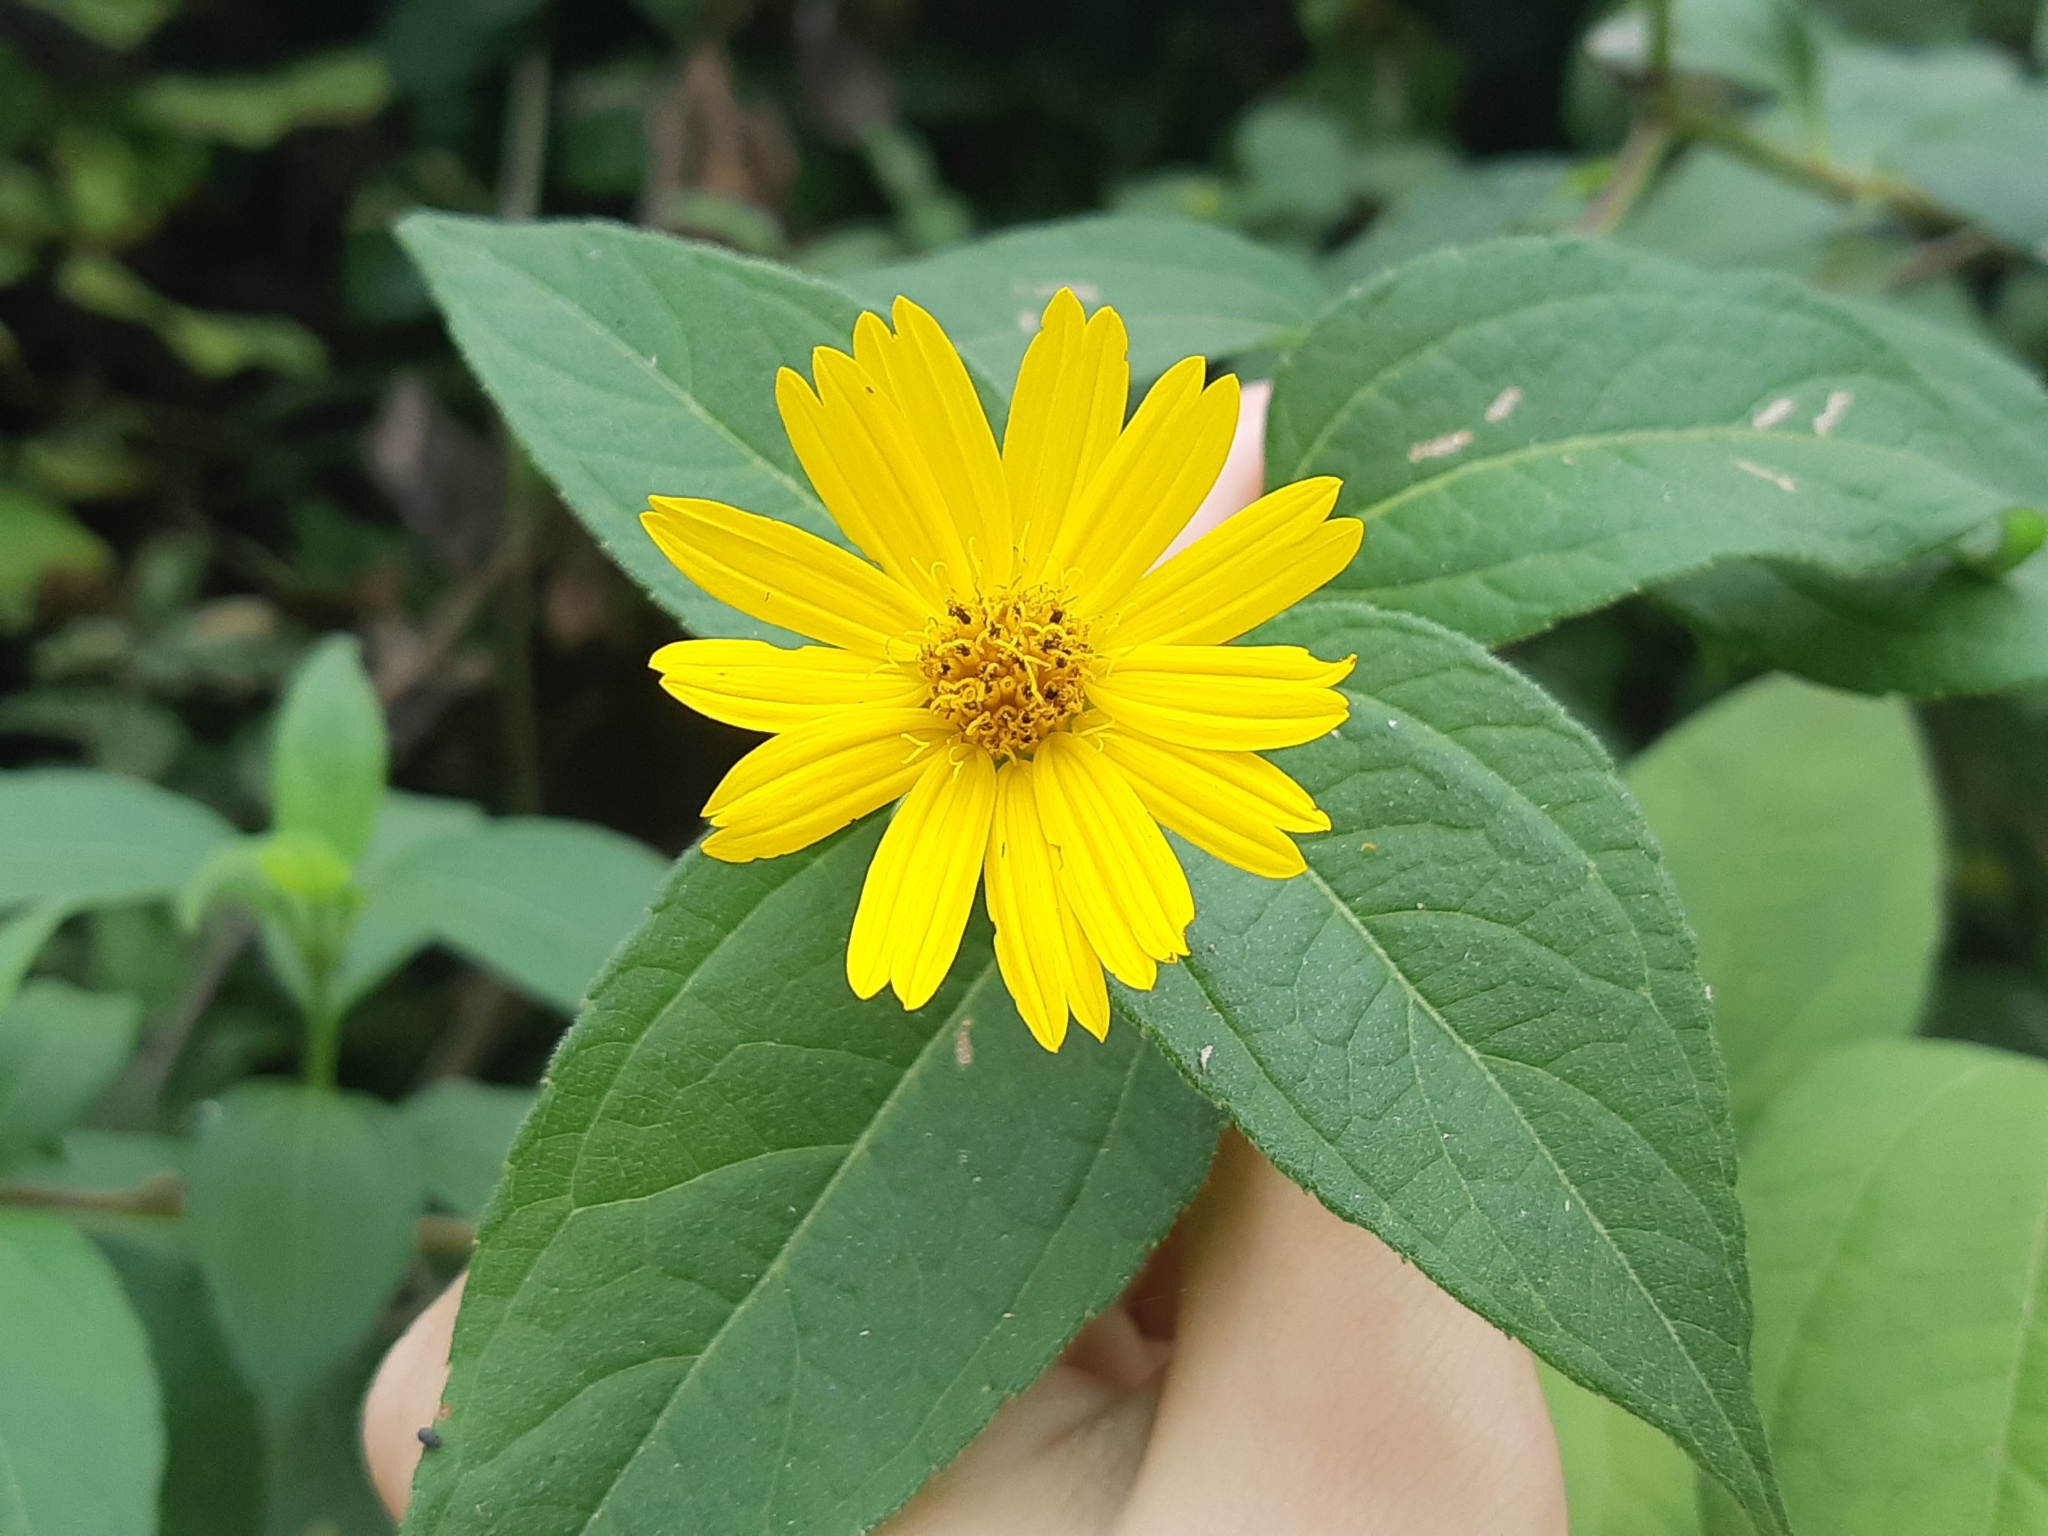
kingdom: Plantae
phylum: Tracheophyta
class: Magnoliopsida
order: Asterales
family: Asteraceae
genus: Wedelia
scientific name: Wedelia oxylepis
